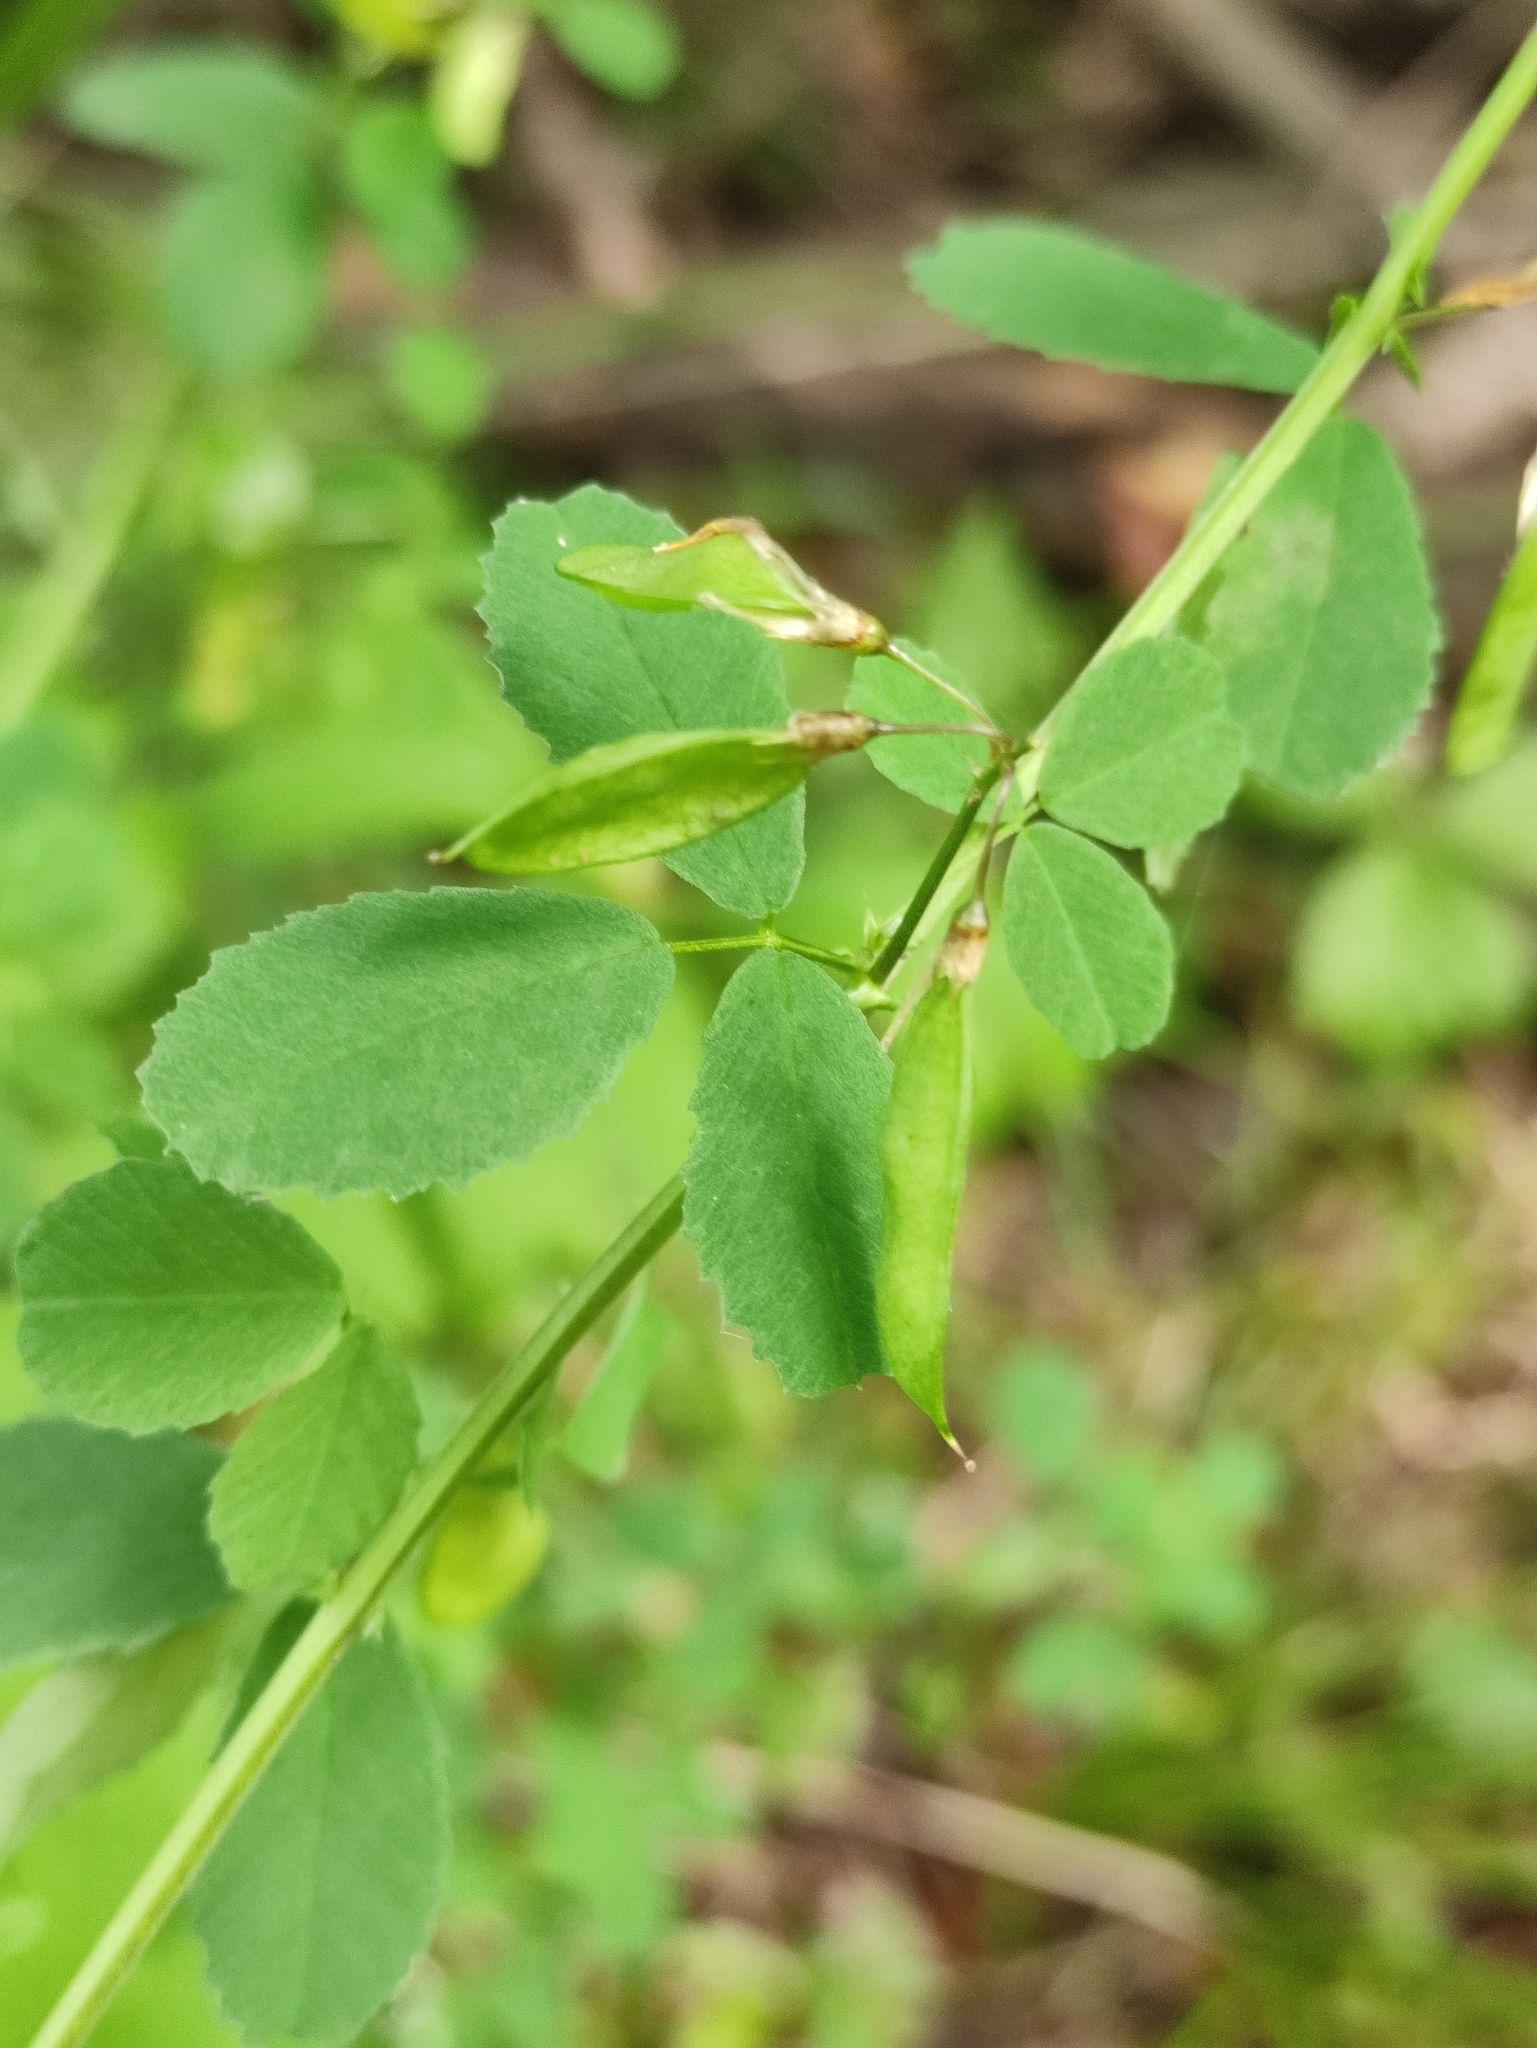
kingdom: Plantae
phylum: Tracheophyta
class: Magnoliopsida
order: Fabales
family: Fabaceae
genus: Medicago
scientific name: Medicago platycarpos
